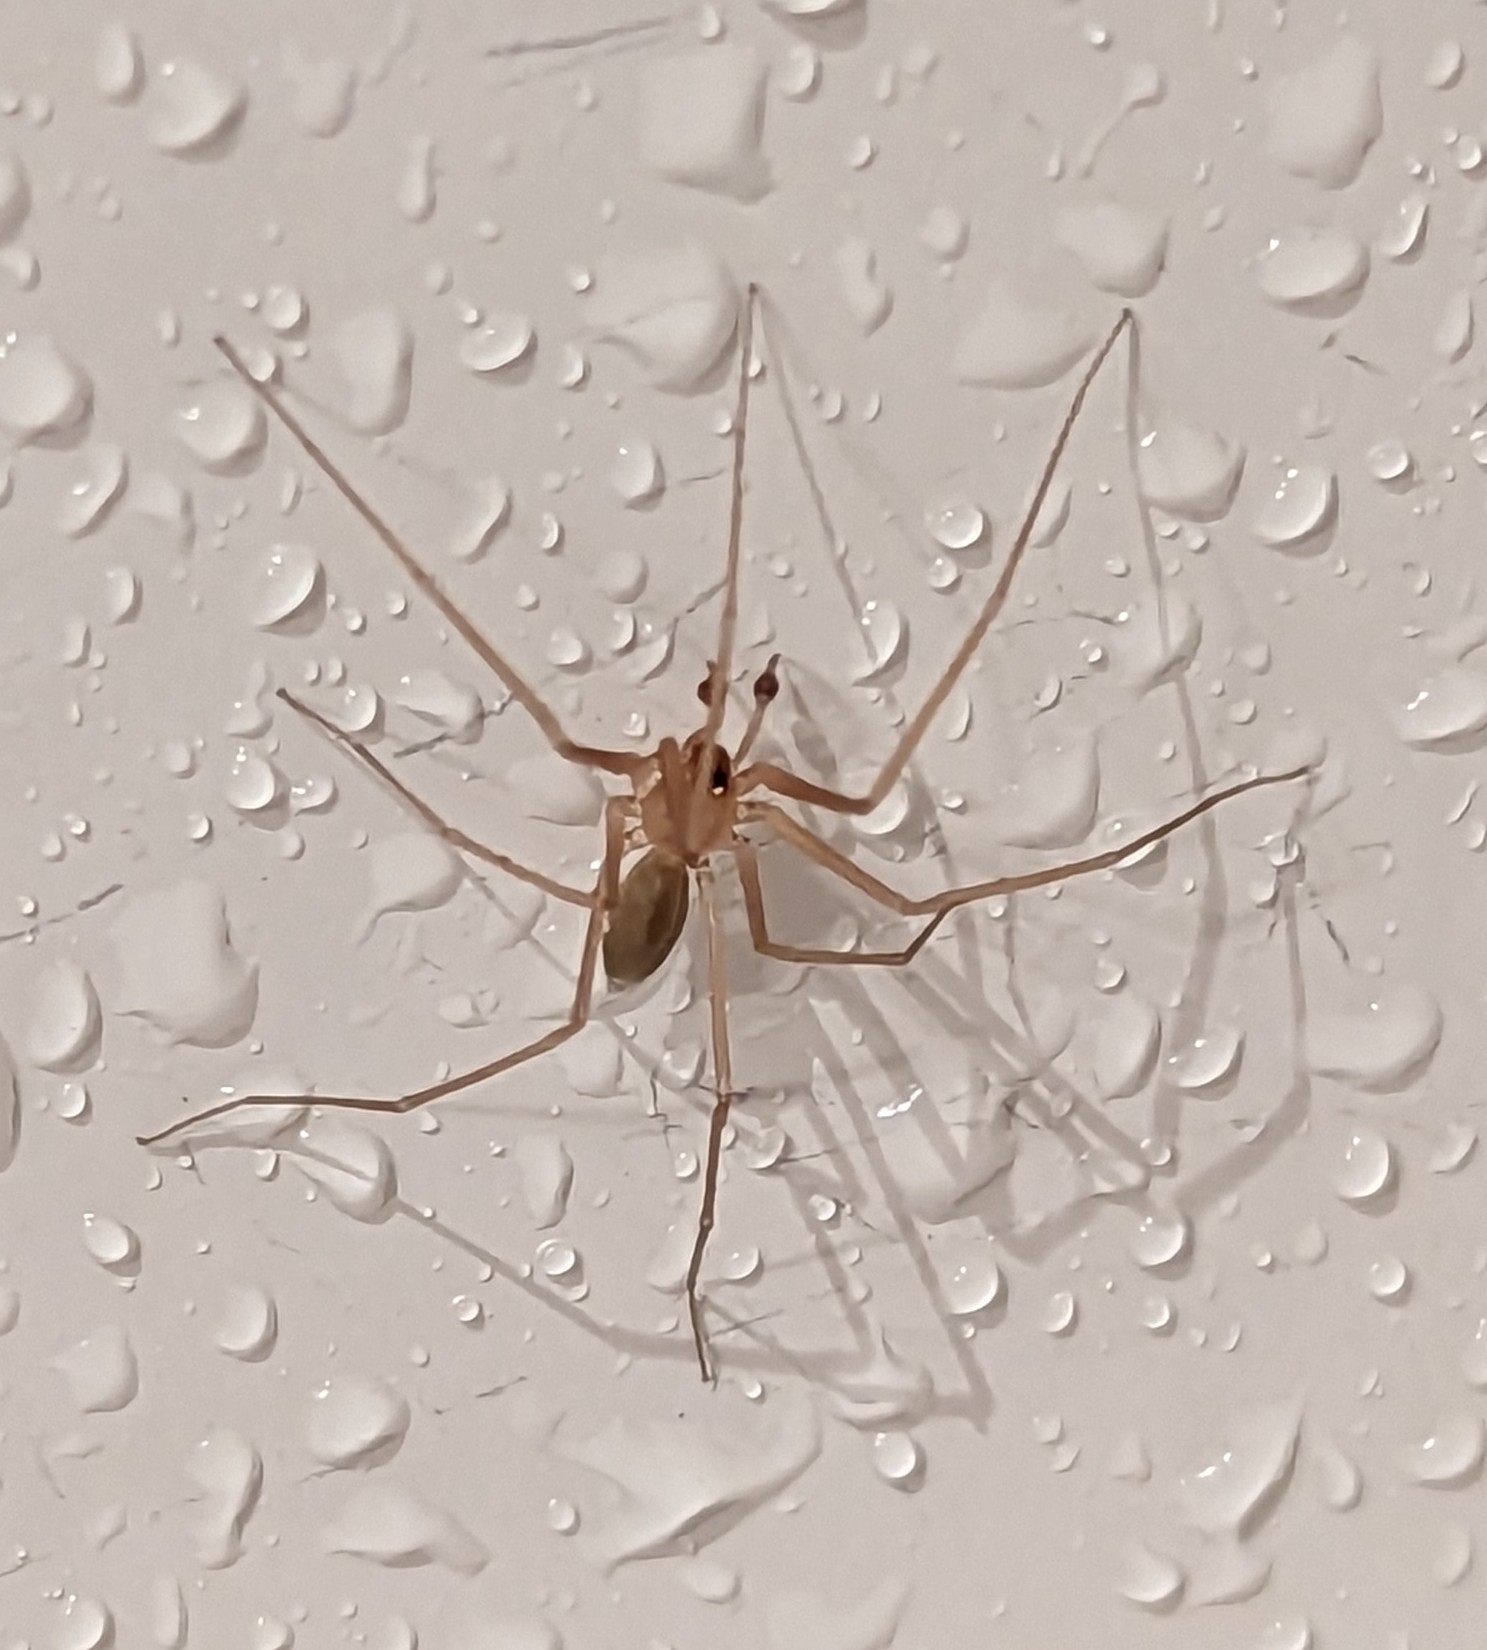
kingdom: Animalia
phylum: Arthropoda
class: Arachnida
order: Araneae
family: Cithaeronidae
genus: Cithaeron
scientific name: Cithaeron praedonius
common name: Synanthropic spider
